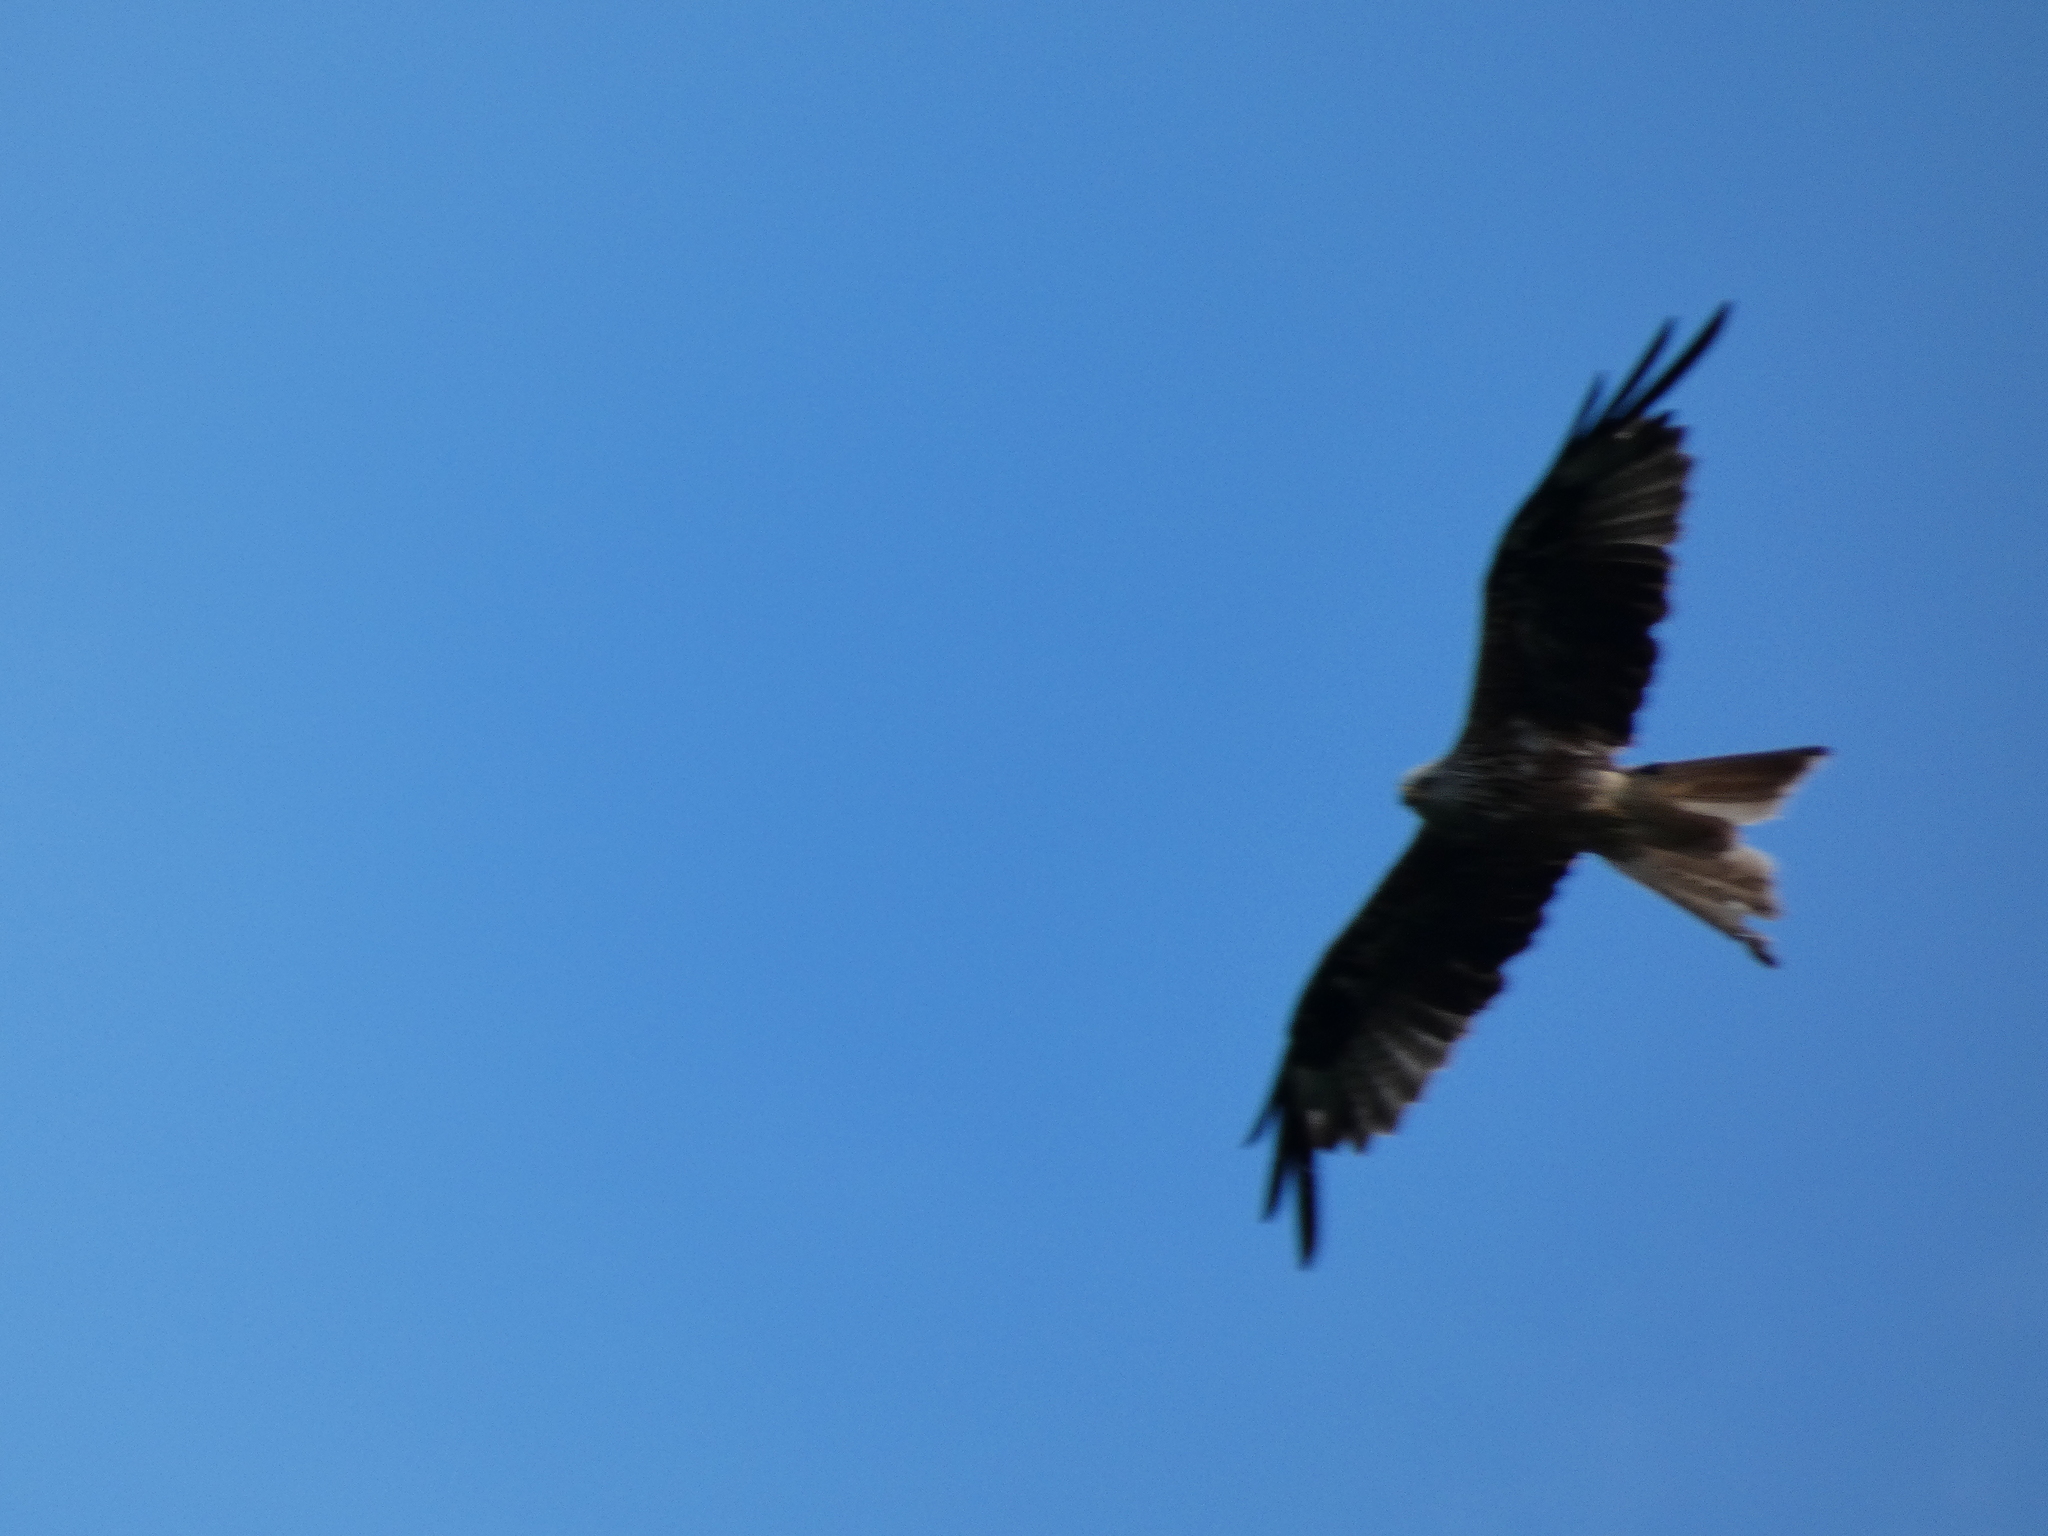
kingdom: Animalia
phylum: Chordata
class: Aves
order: Accipitriformes
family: Accipitridae
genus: Milvus
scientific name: Milvus milvus
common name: Red kite
